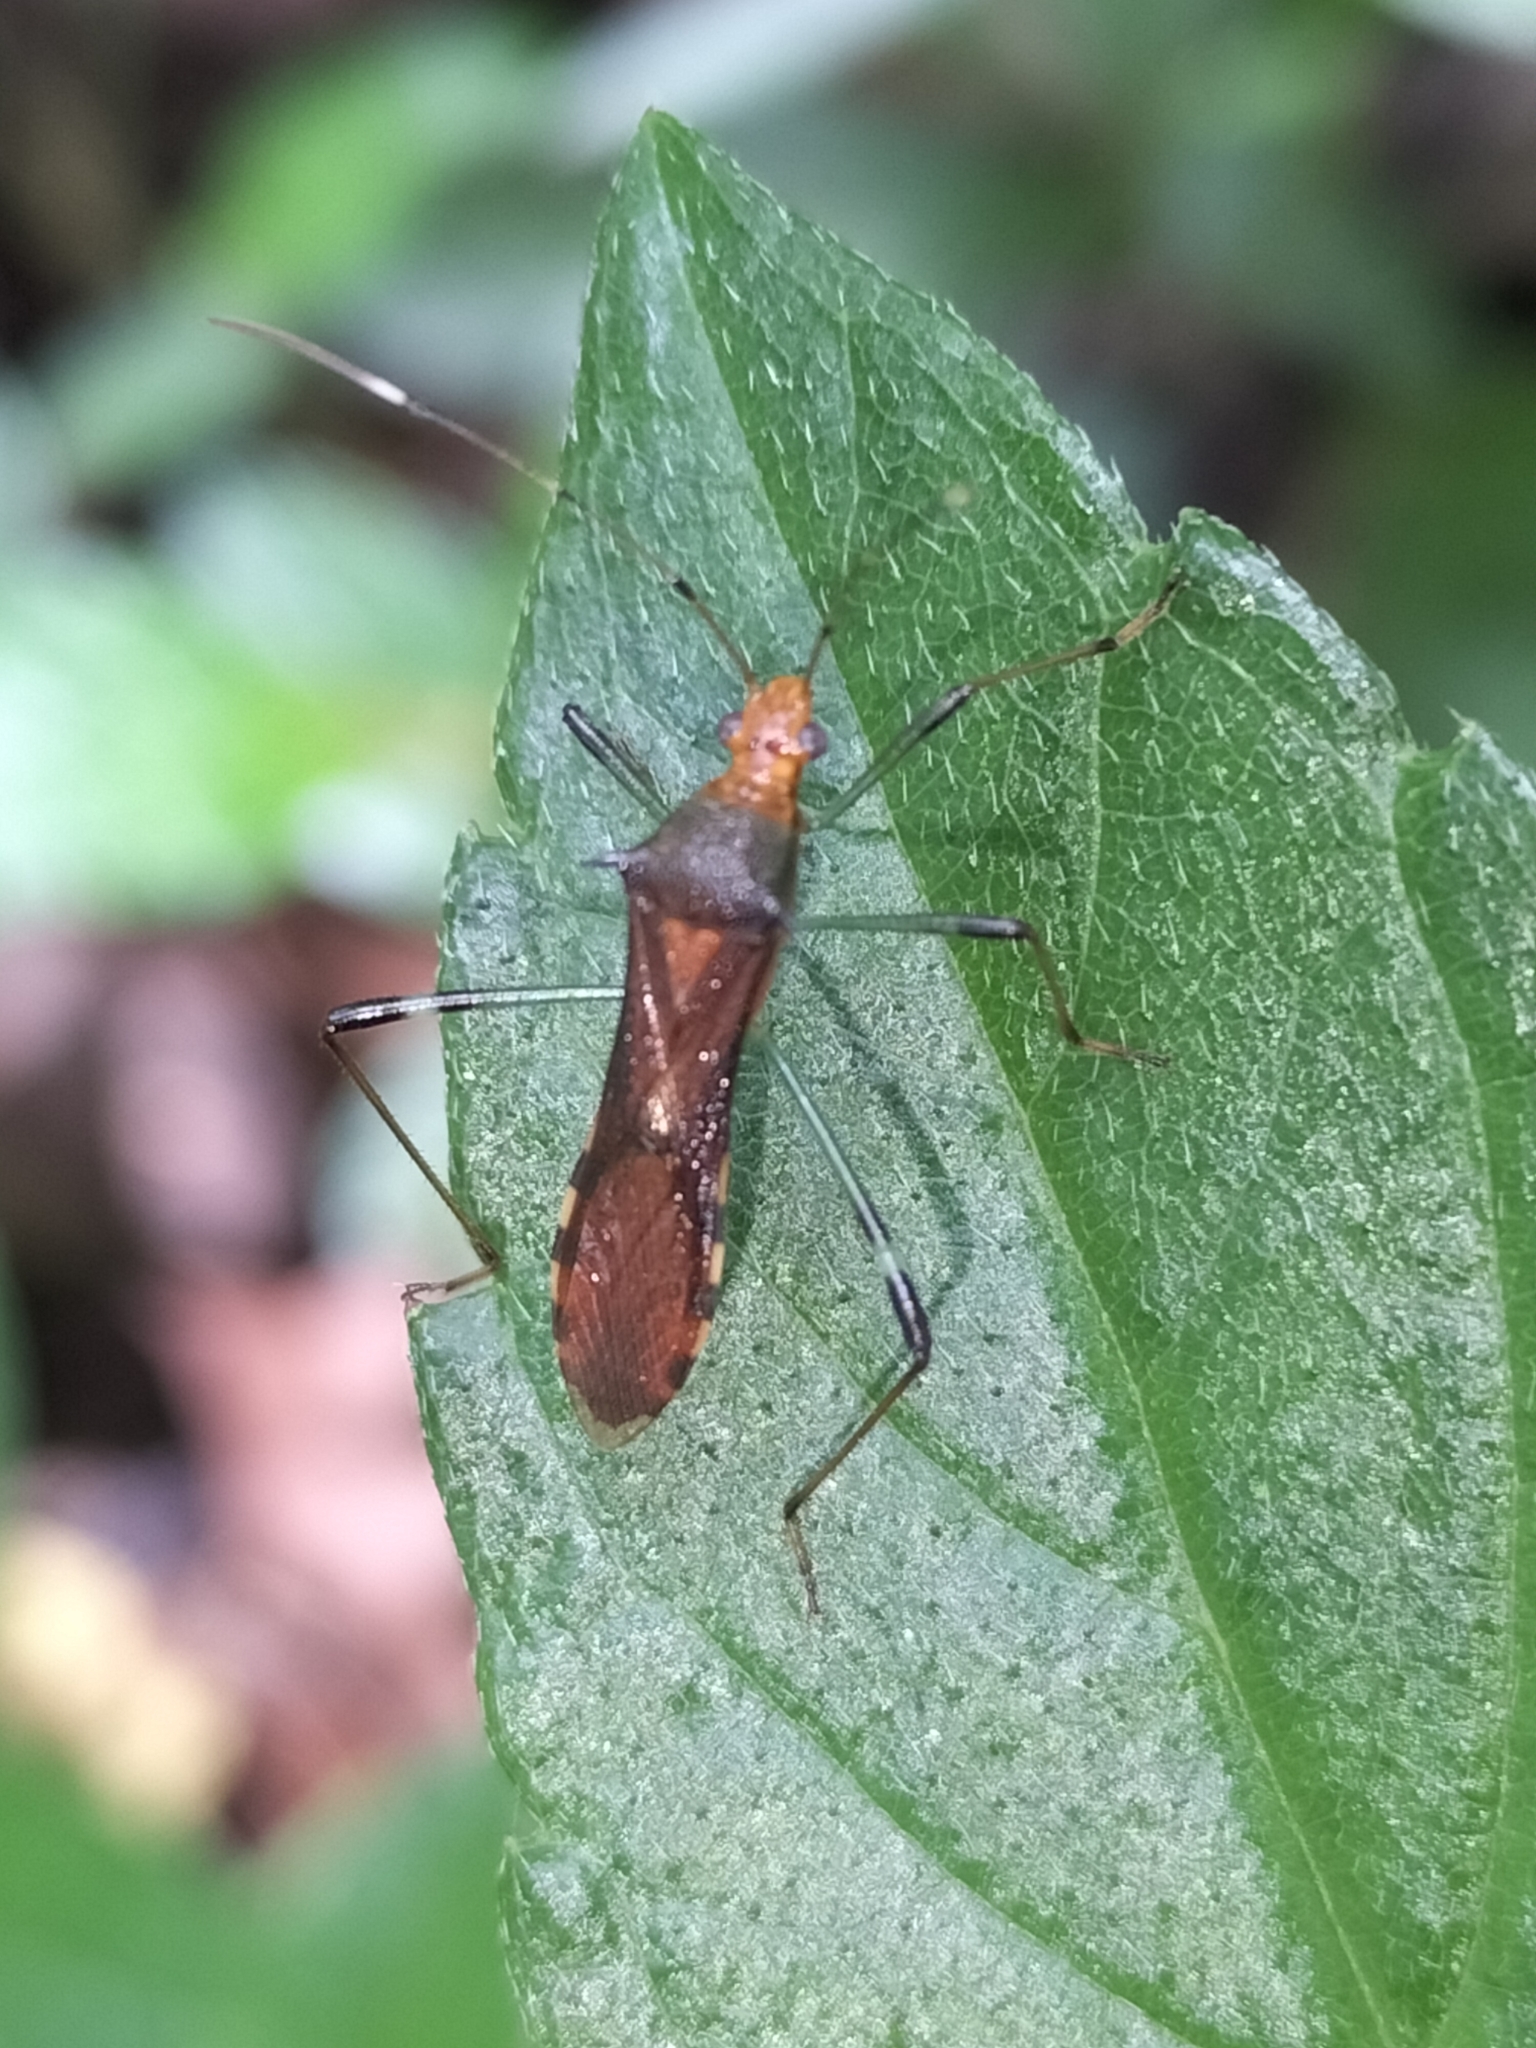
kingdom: Animalia
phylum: Arthropoda
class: Insecta
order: Hemiptera
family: Alydidae
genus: Noliphus
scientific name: Noliphus erythrocephalus
